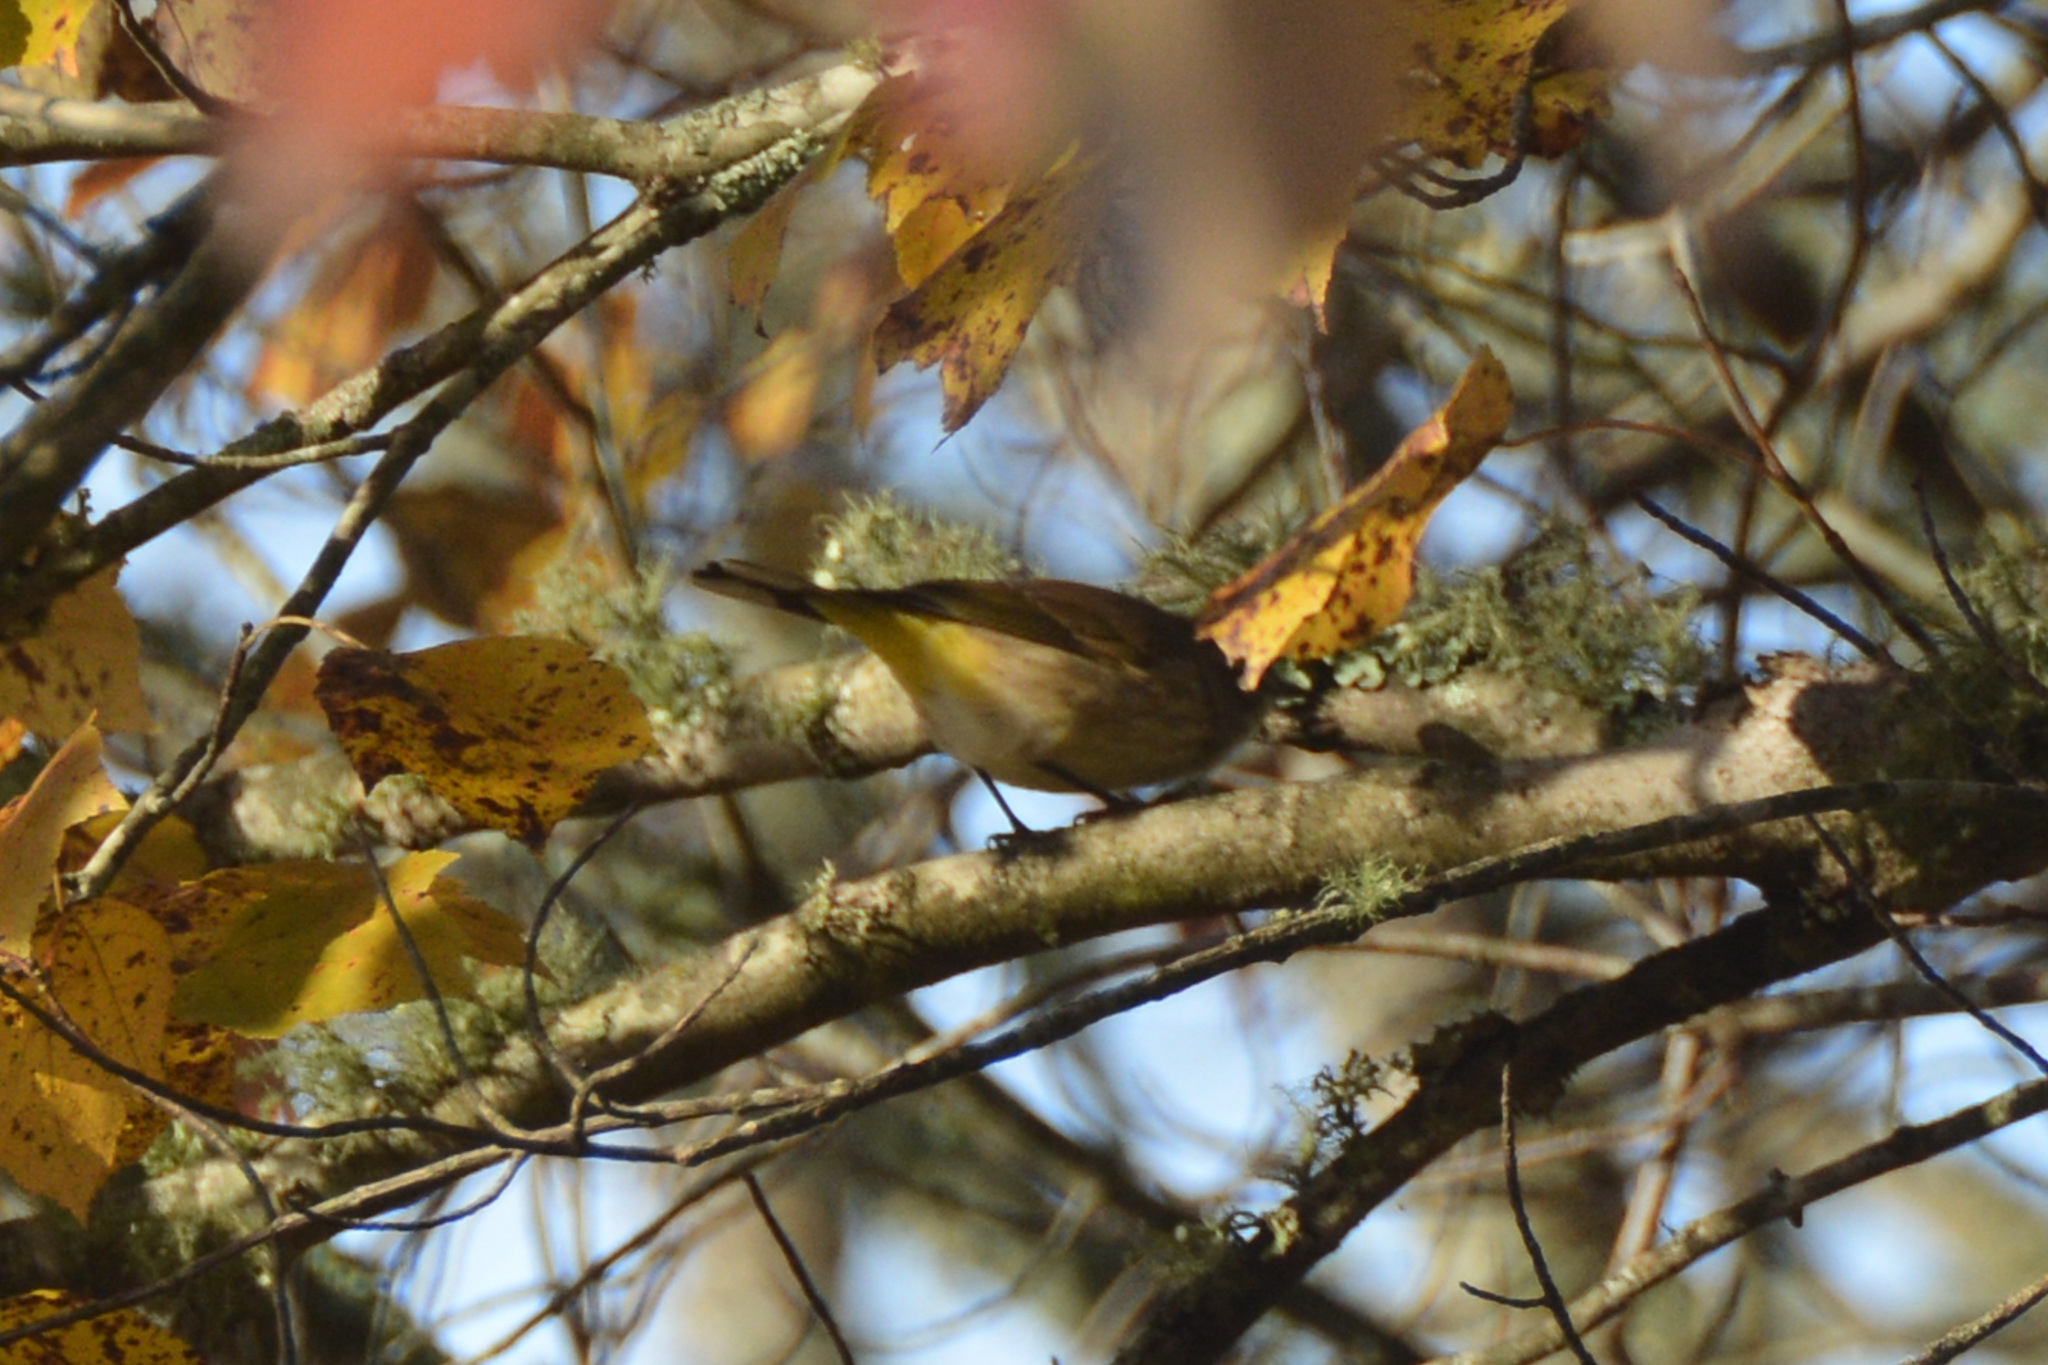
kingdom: Animalia
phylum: Chordata
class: Aves
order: Passeriformes
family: Parulidae
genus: Setophaga
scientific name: Setophaga palmarum
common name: Palm warbler
